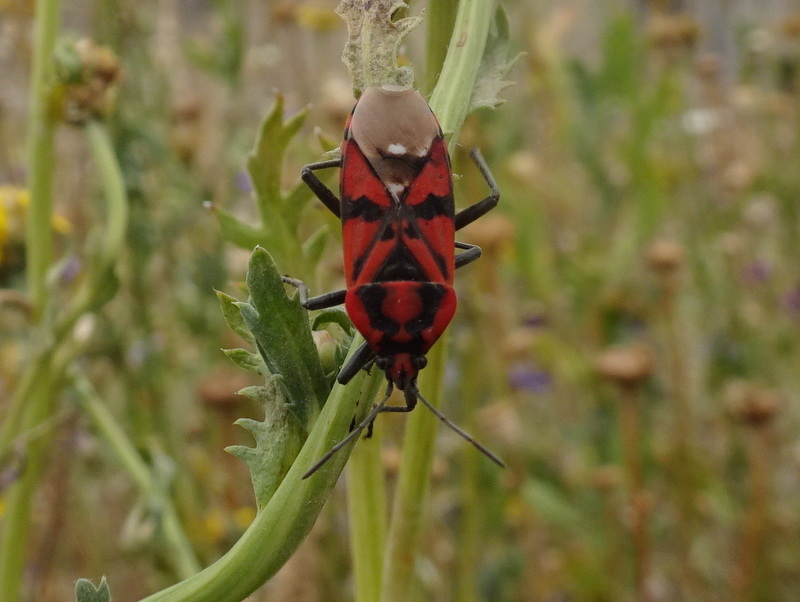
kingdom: Animalia
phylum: Arthropoda
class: Insecta
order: Hemiptera
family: Lygaeidae
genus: Spilostethus
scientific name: Spilostethus pandurus
